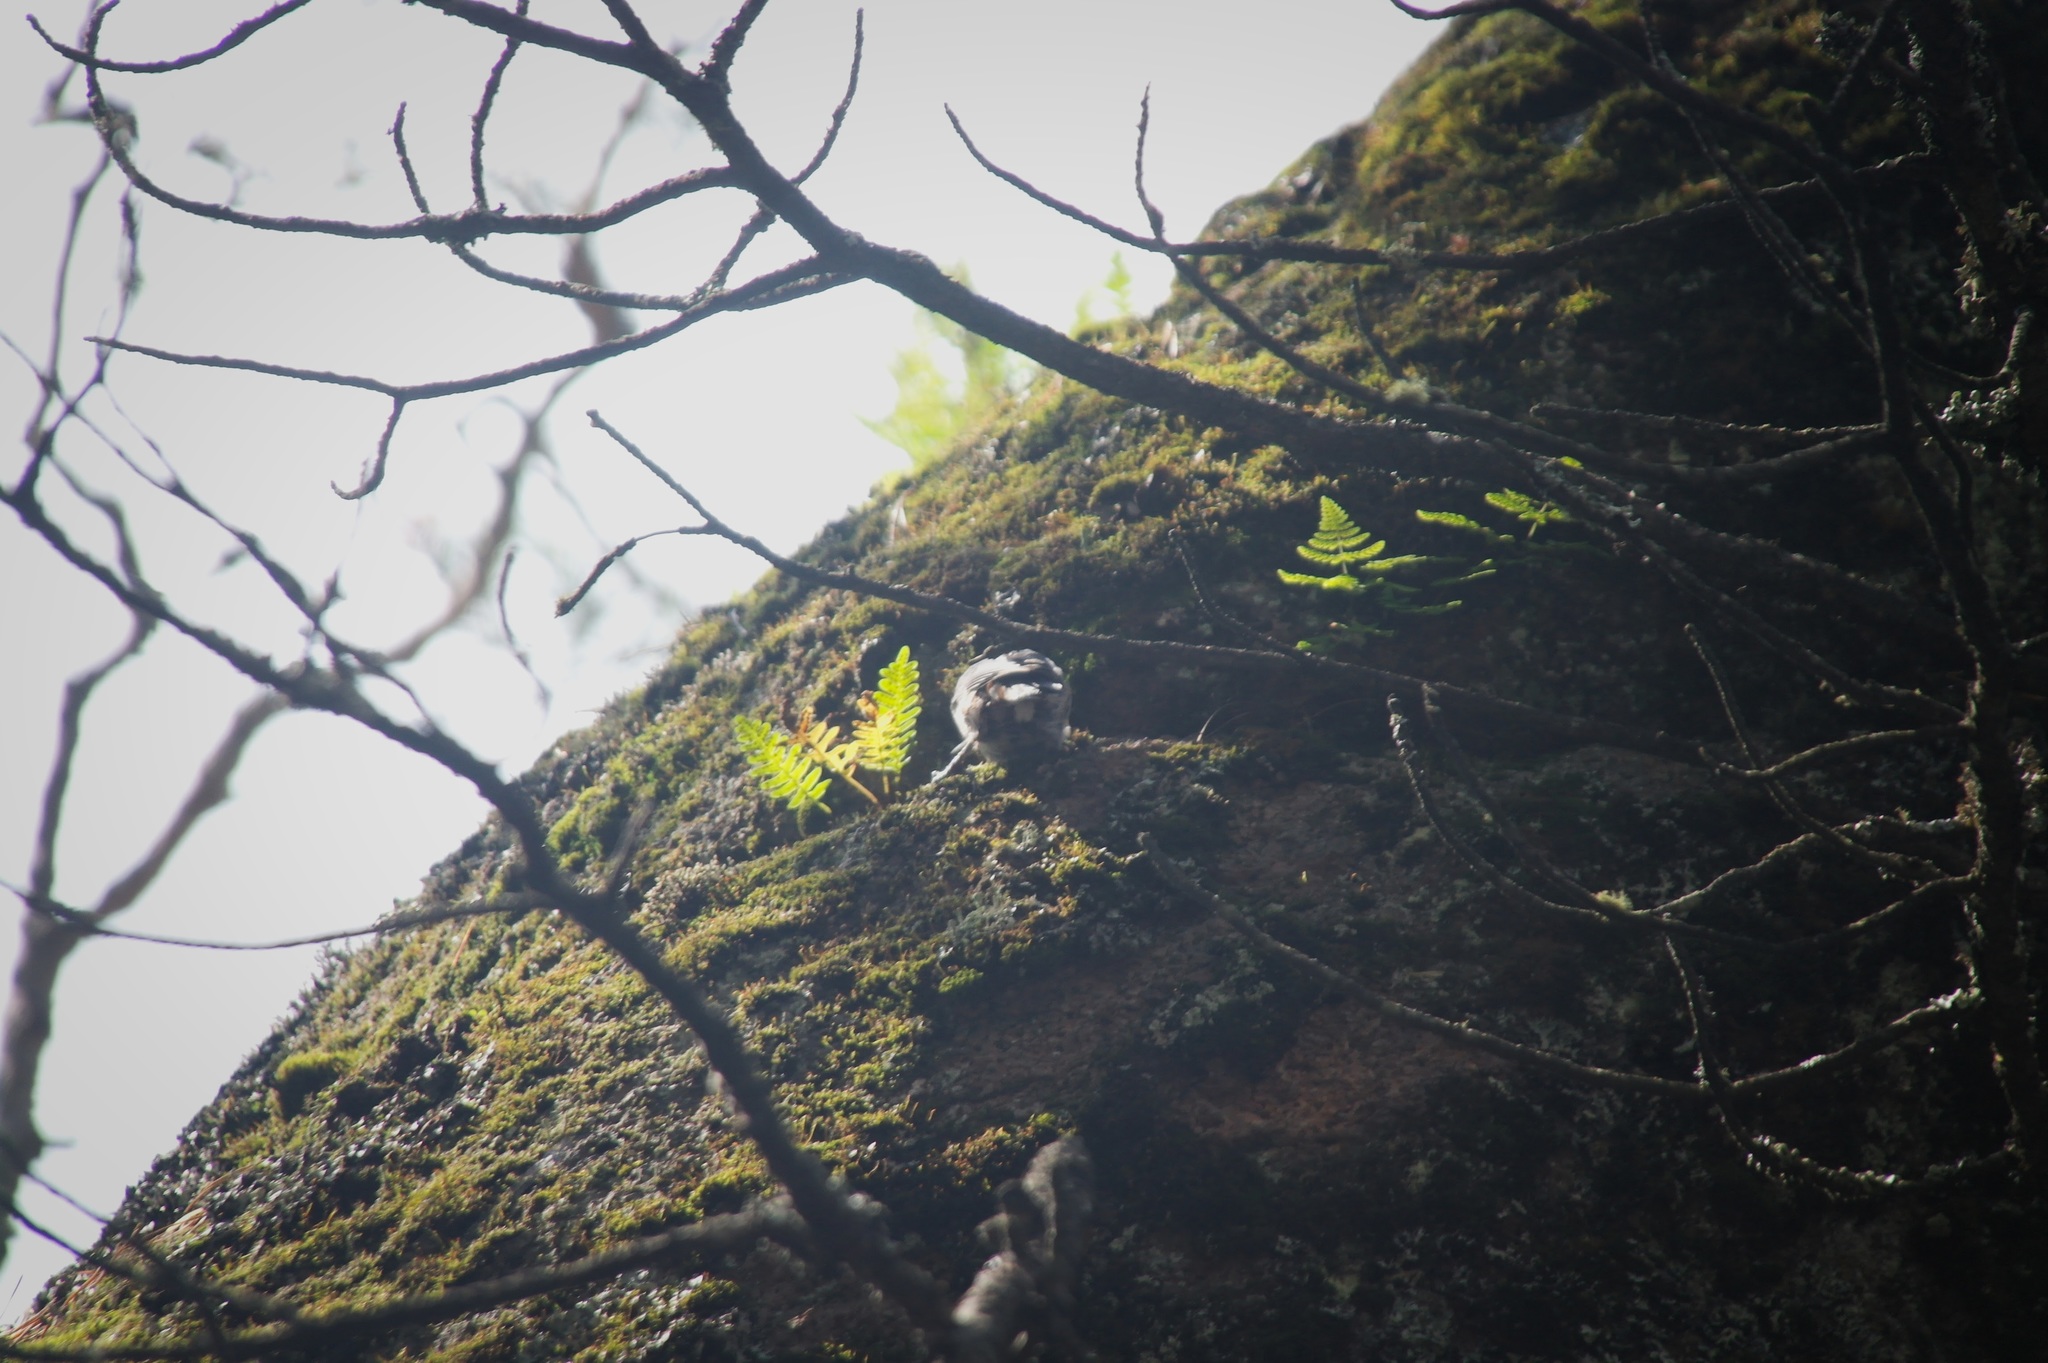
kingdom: Animalia
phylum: Chordata
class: Aves
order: Passeriformes
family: Sittidae
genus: Sitta
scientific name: Sitta europaea
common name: Eurasian nuthatch
